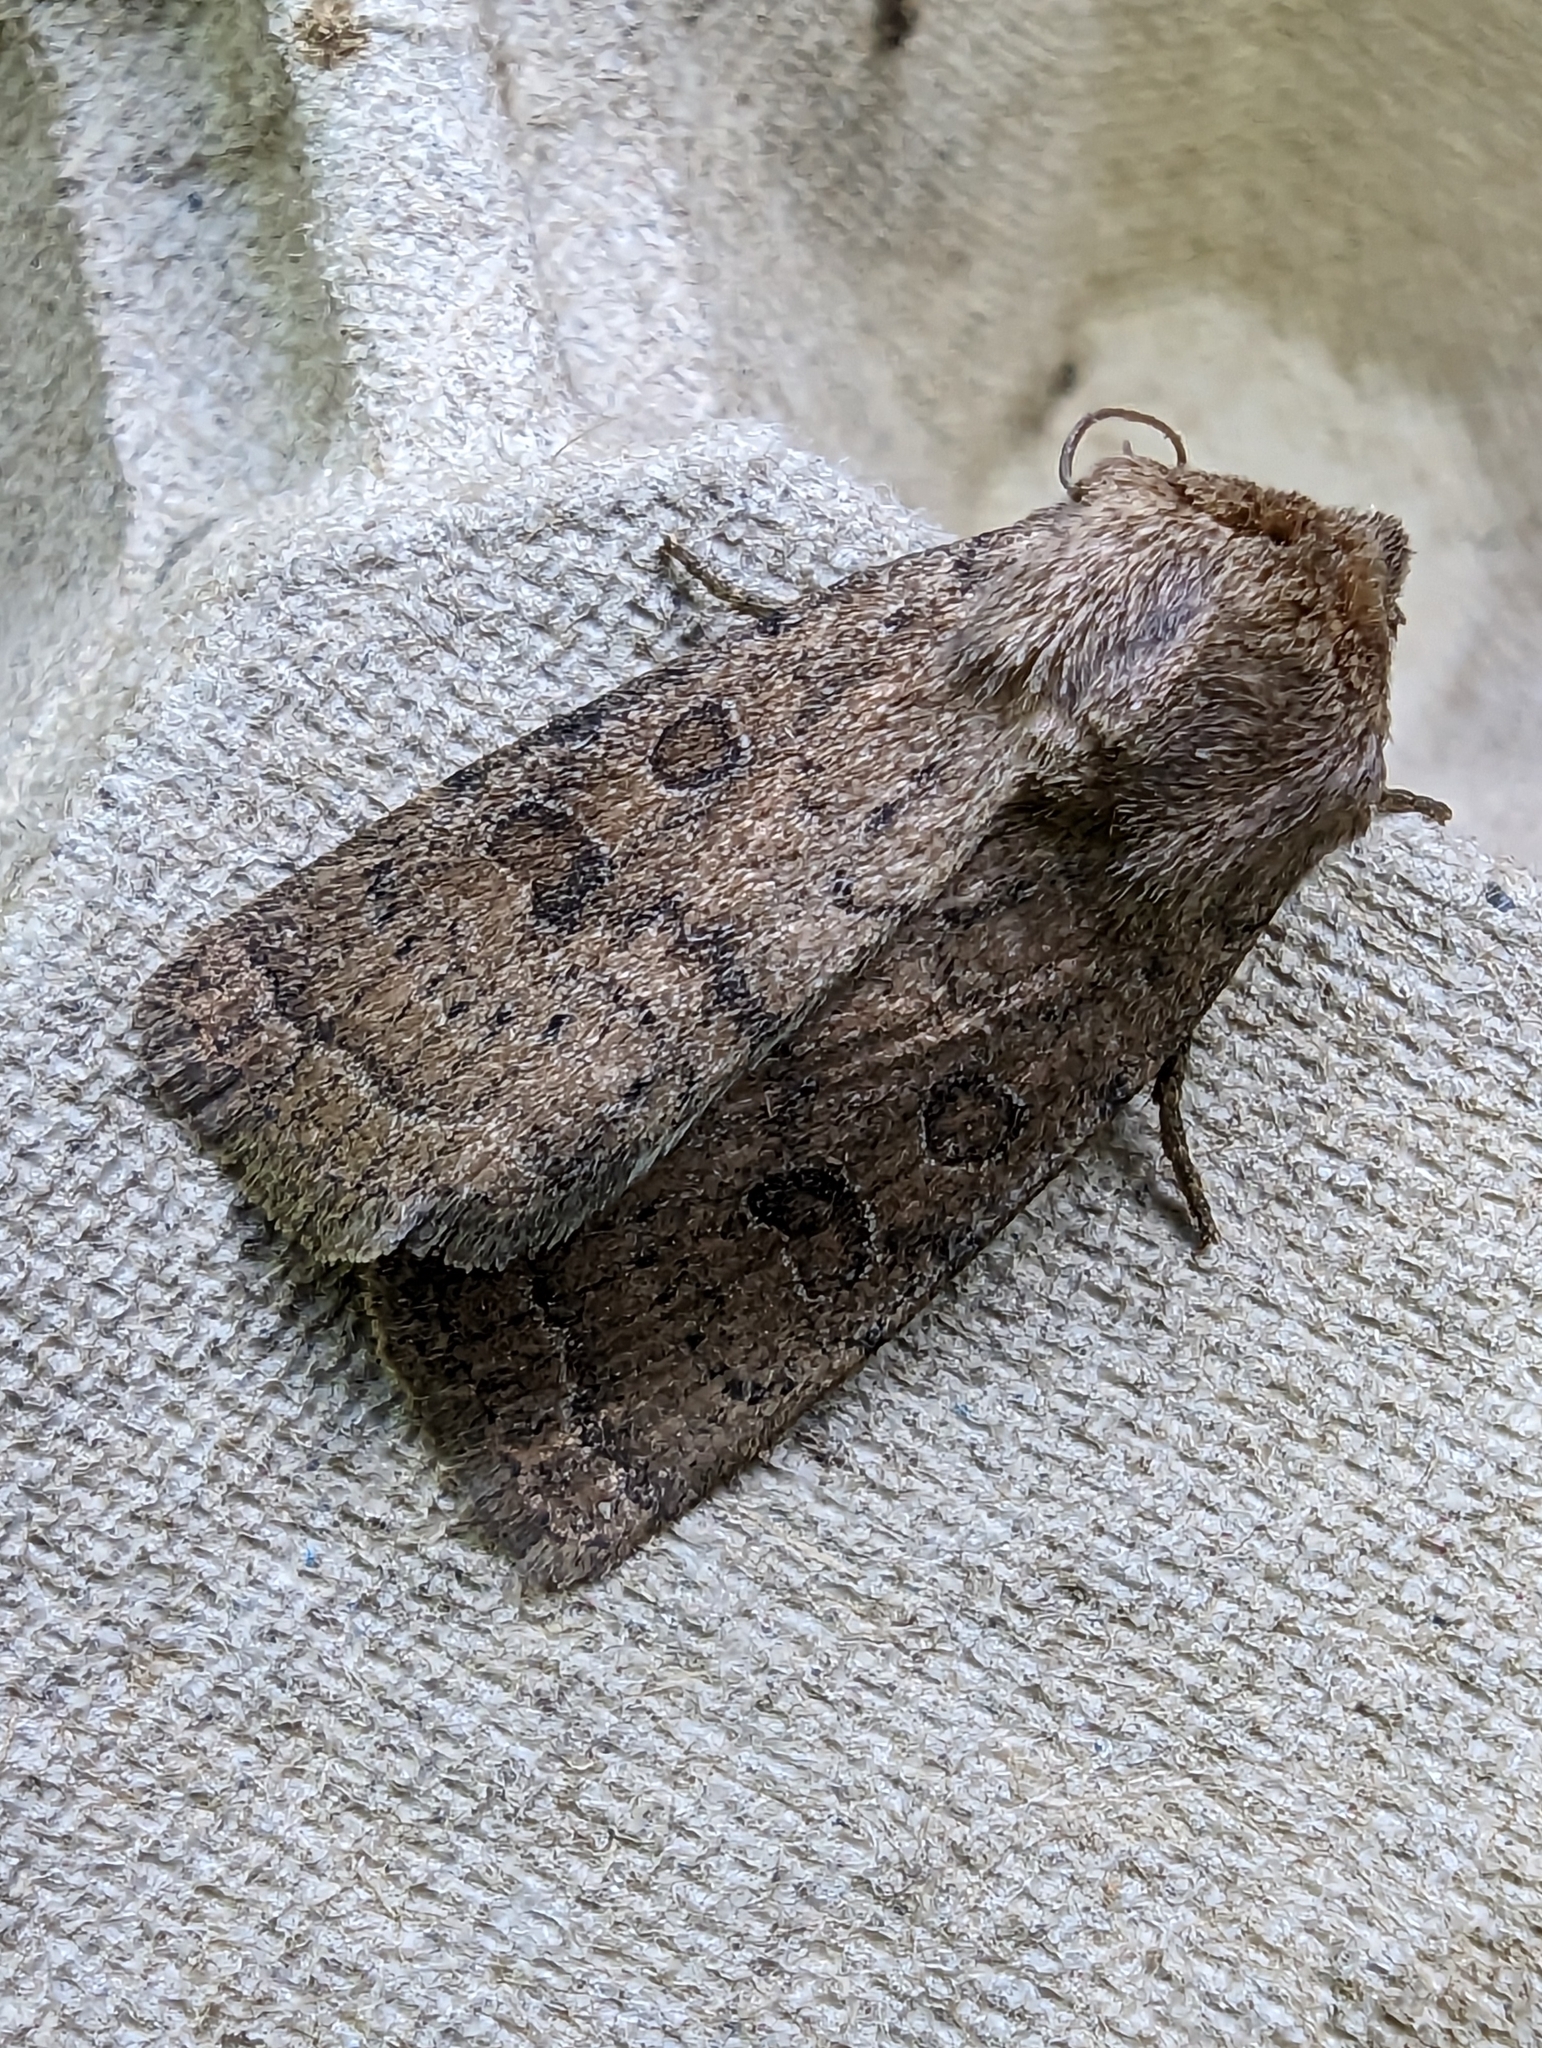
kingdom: Animalia
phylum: Arthropoda
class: Insecta
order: Lepidoptera
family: Noctuidae
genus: Hoplodrina
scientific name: Hoplodrina octogenaria
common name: Uncertain
